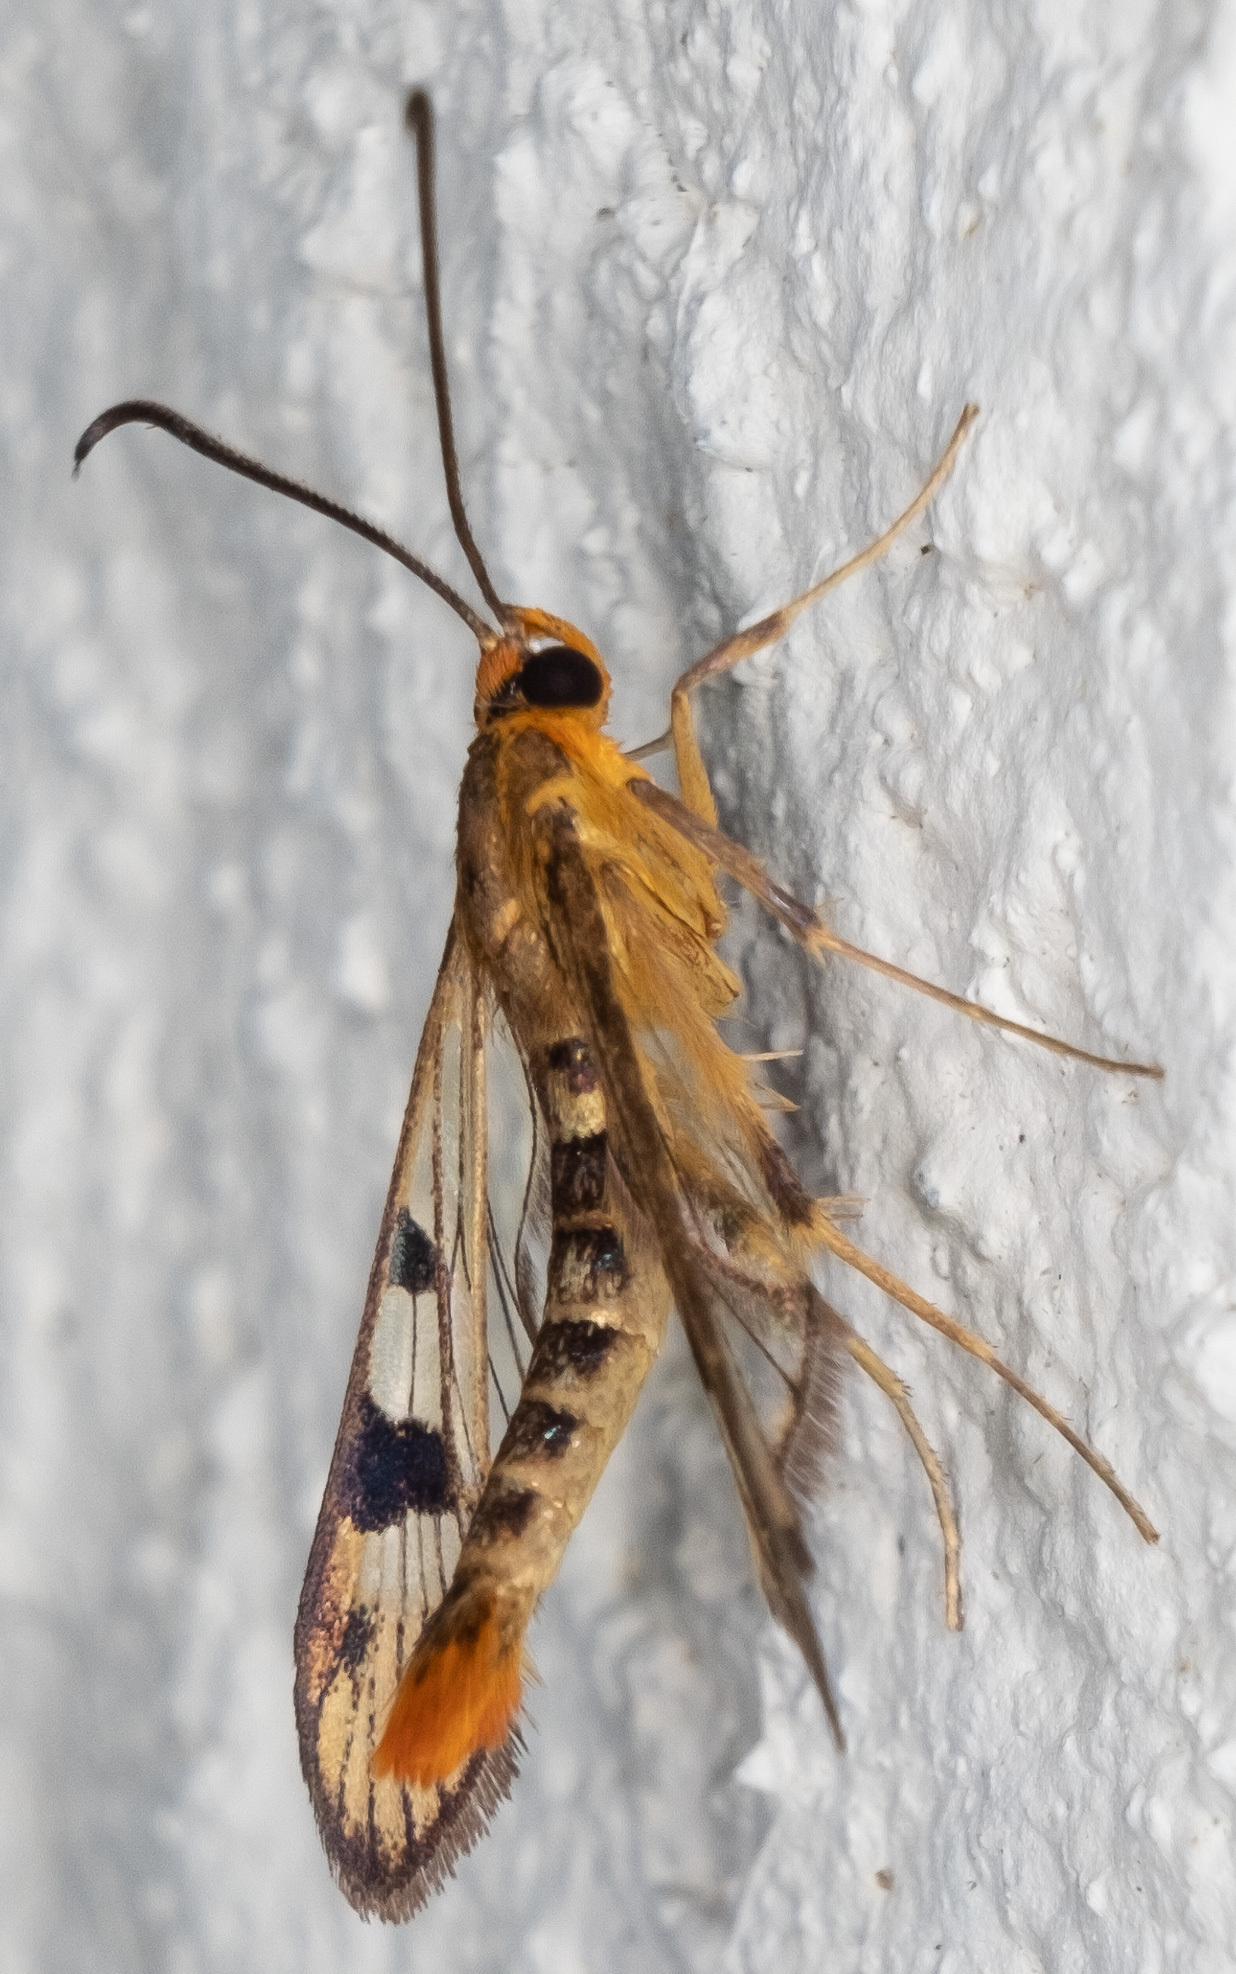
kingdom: Animalia
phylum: Arthropoda
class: Insecta
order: Lepidoptera
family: Sesiidae
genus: Synanthedon
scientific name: Synanthedon acerni
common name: Maple callus borer moth
